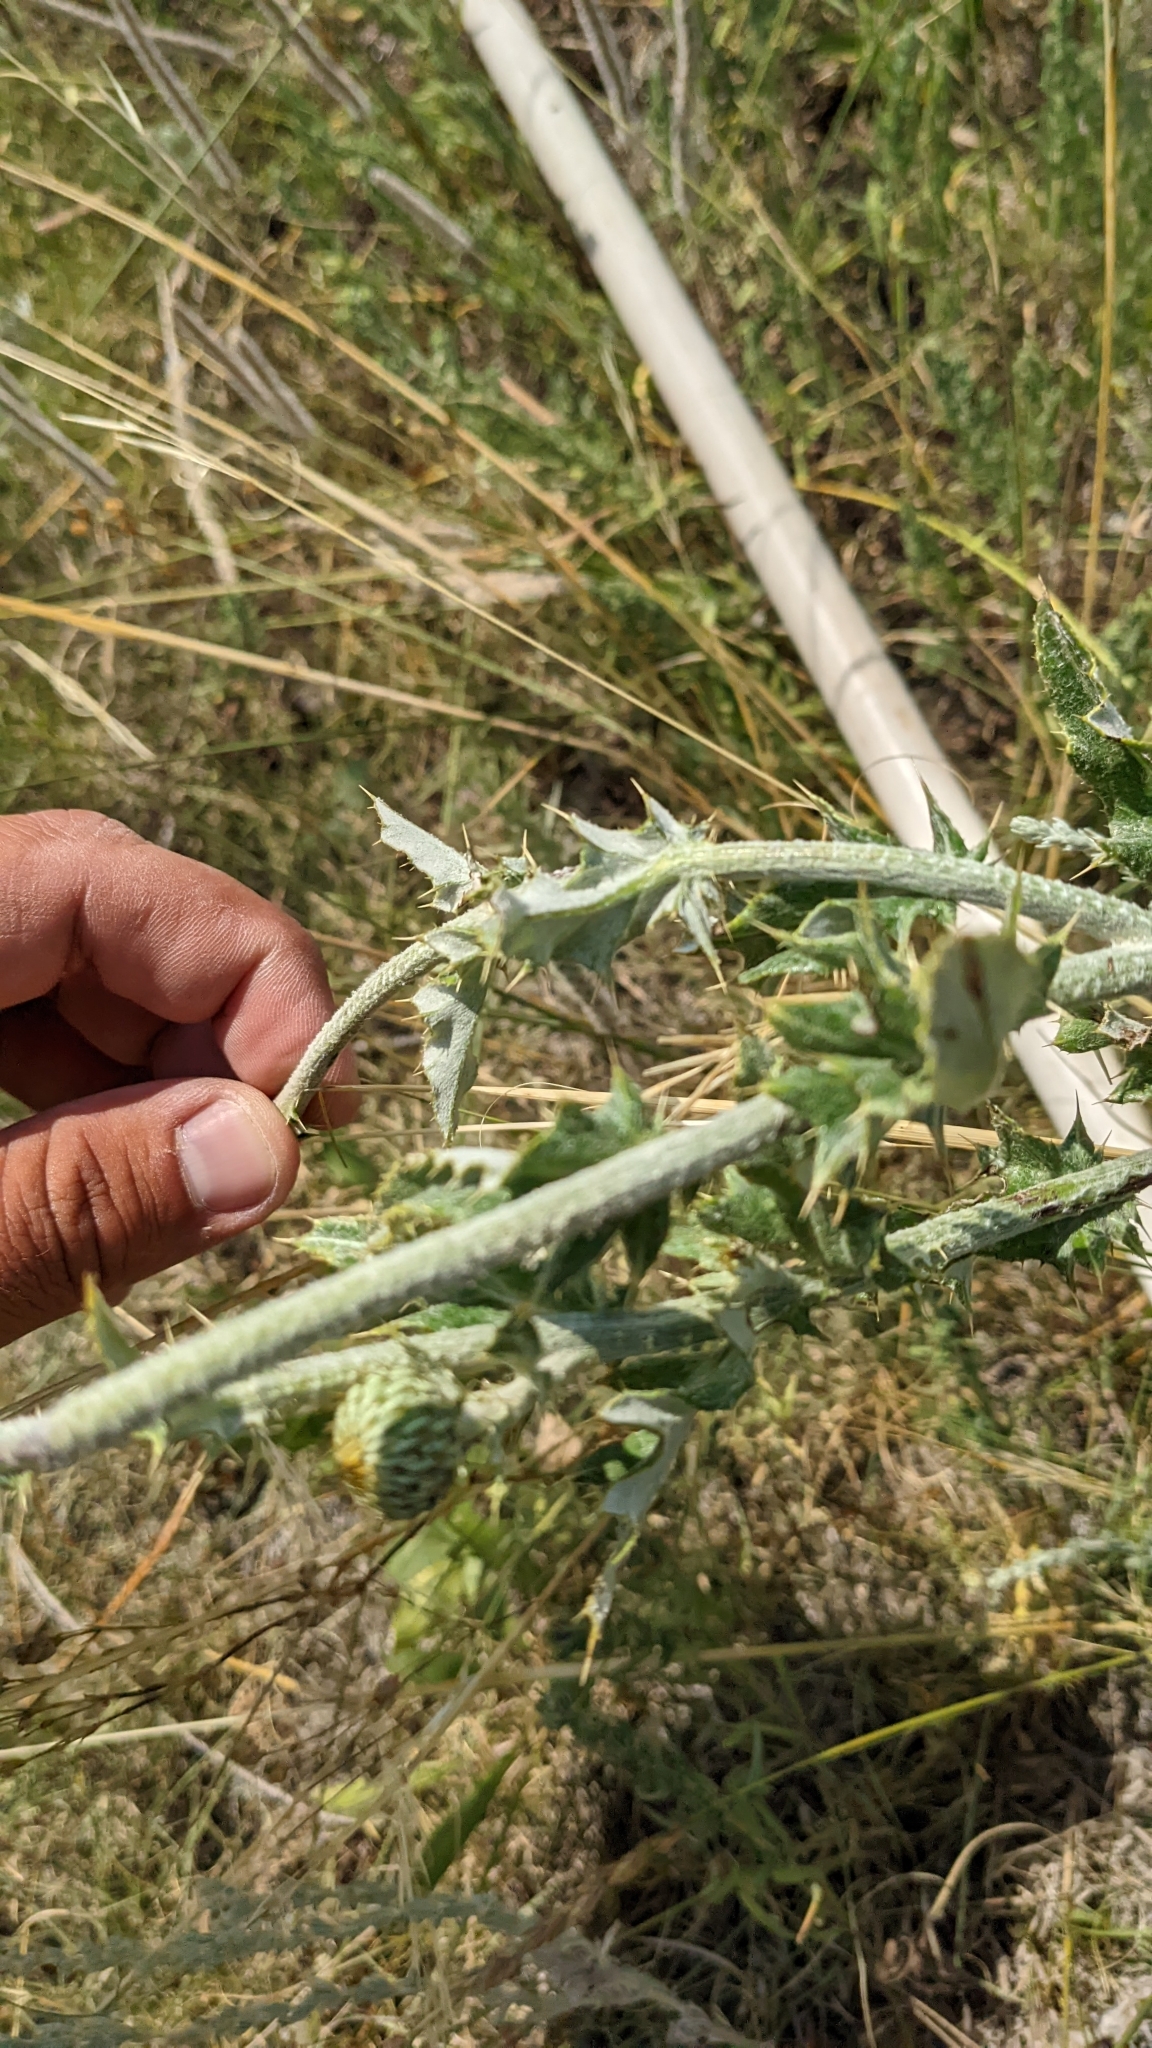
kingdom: Plantae
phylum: Tracheophyta
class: Magnoliopsida
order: Asterales
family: Asteraceae
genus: Cirsium
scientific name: Cirsium undulatum
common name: Pasture thistle
